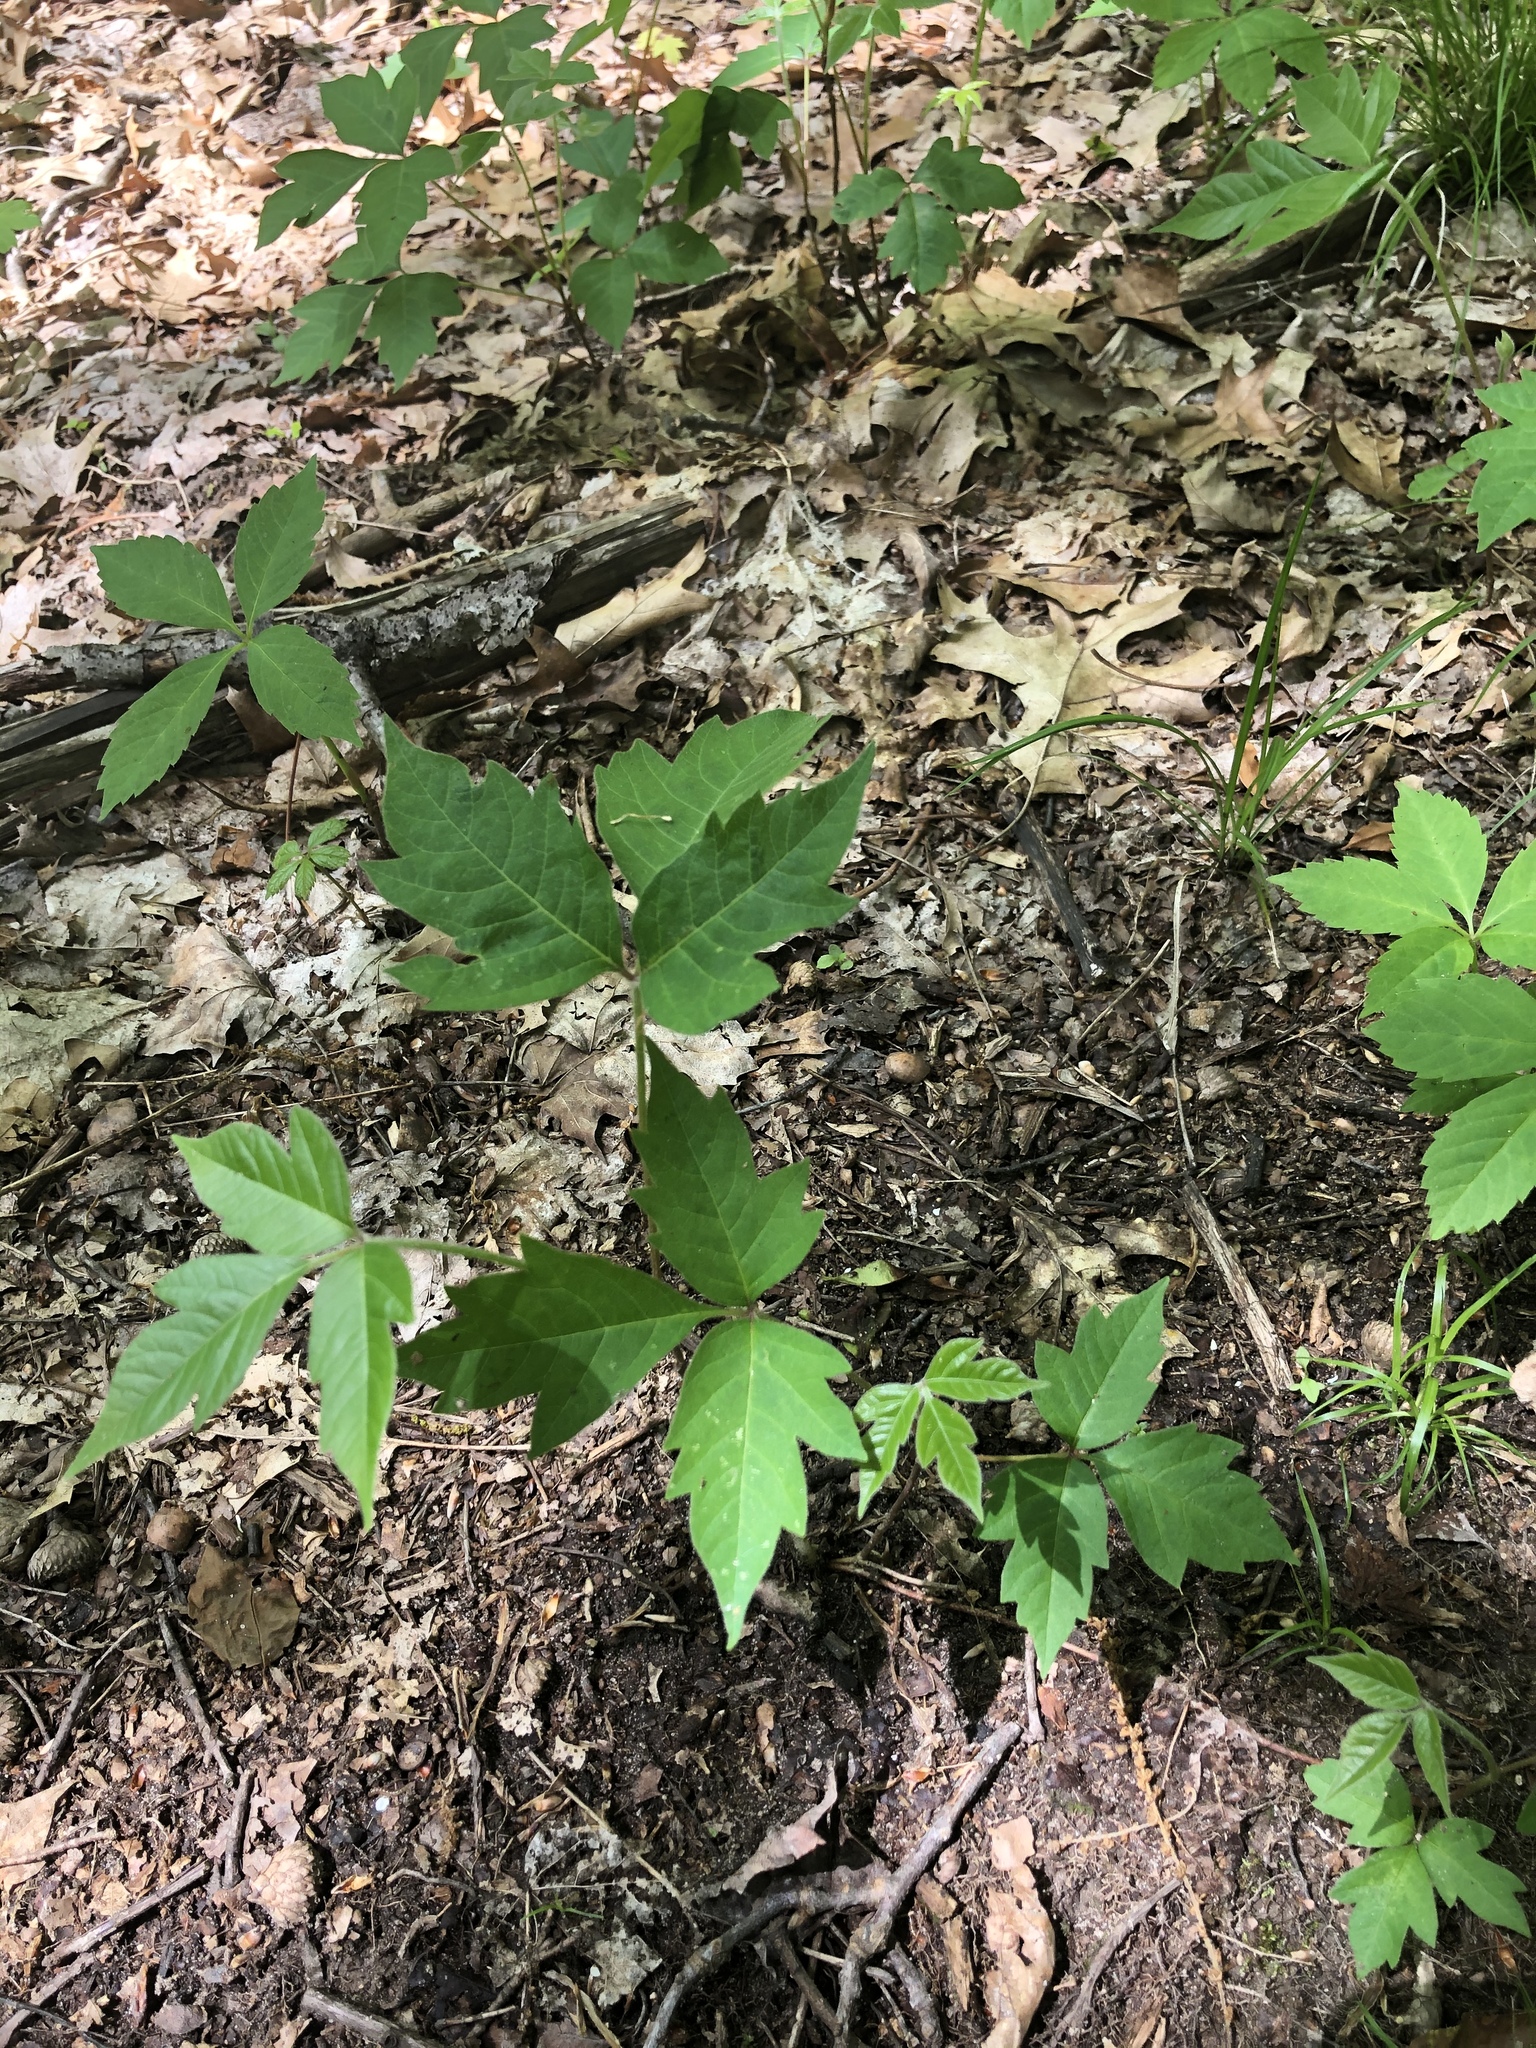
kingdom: Plantae
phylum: Tracheophyta
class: Magnoliopsida
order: Sapindales
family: Anacardiaceae
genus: Toxicodendron
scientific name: Toxicodendron radicans
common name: Poison ivy
